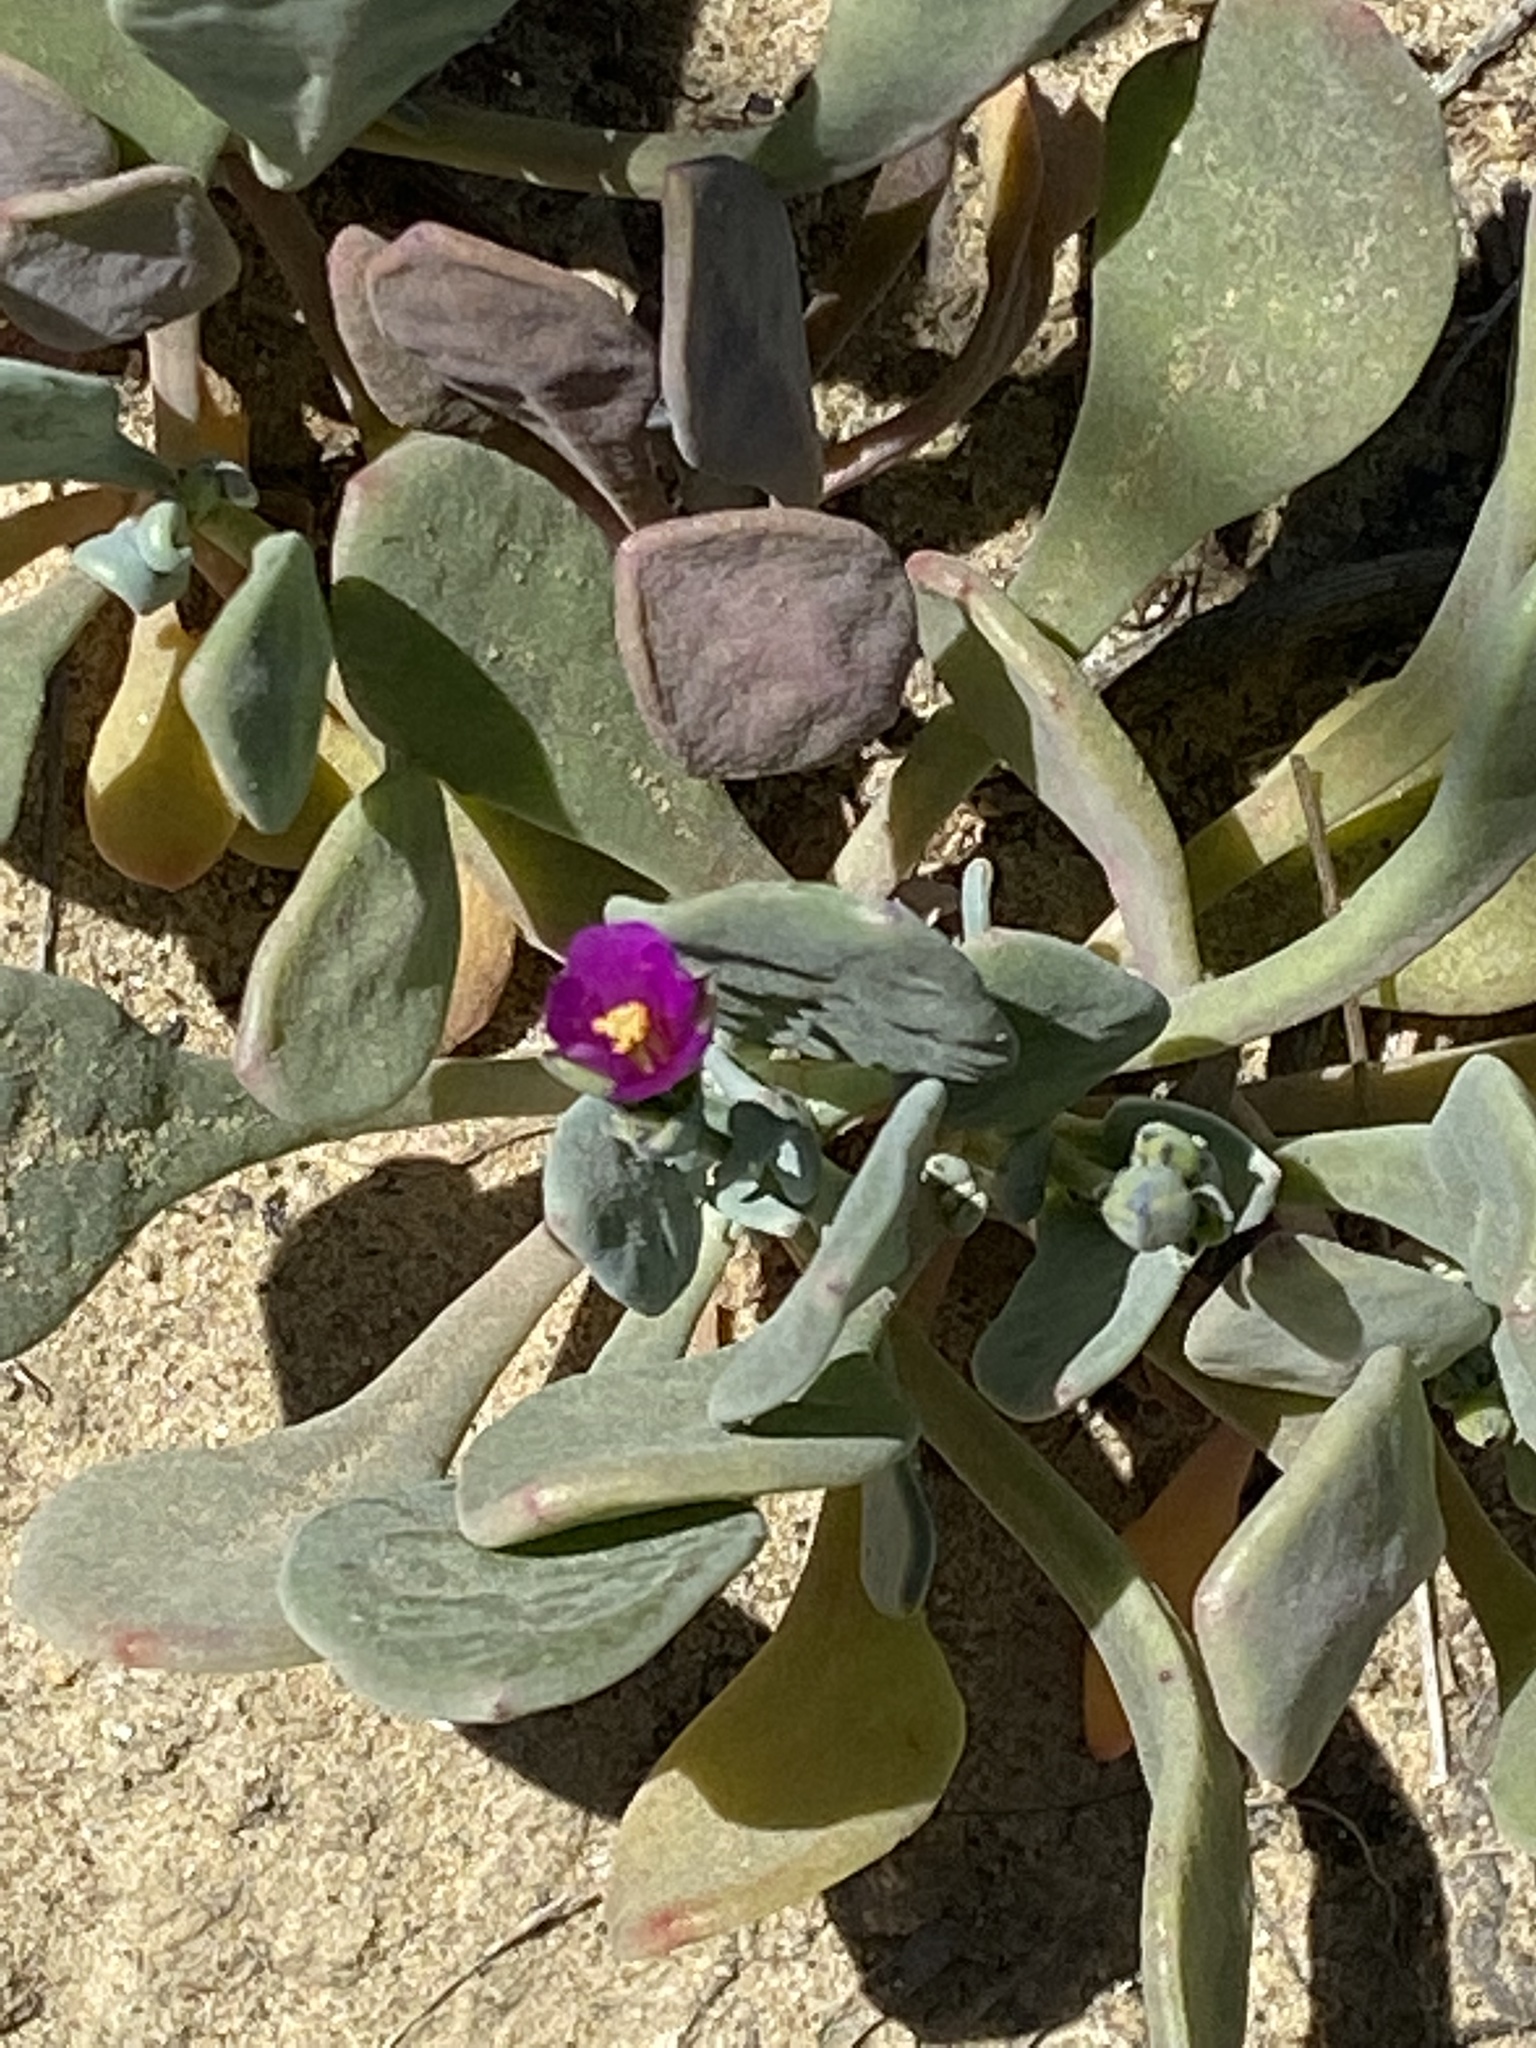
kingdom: Plantae
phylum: Tracheophyta
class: Magnoliopsida
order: Caryophyllales
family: Montiaceae
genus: Cistanthe
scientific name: Cistanthe maritima
